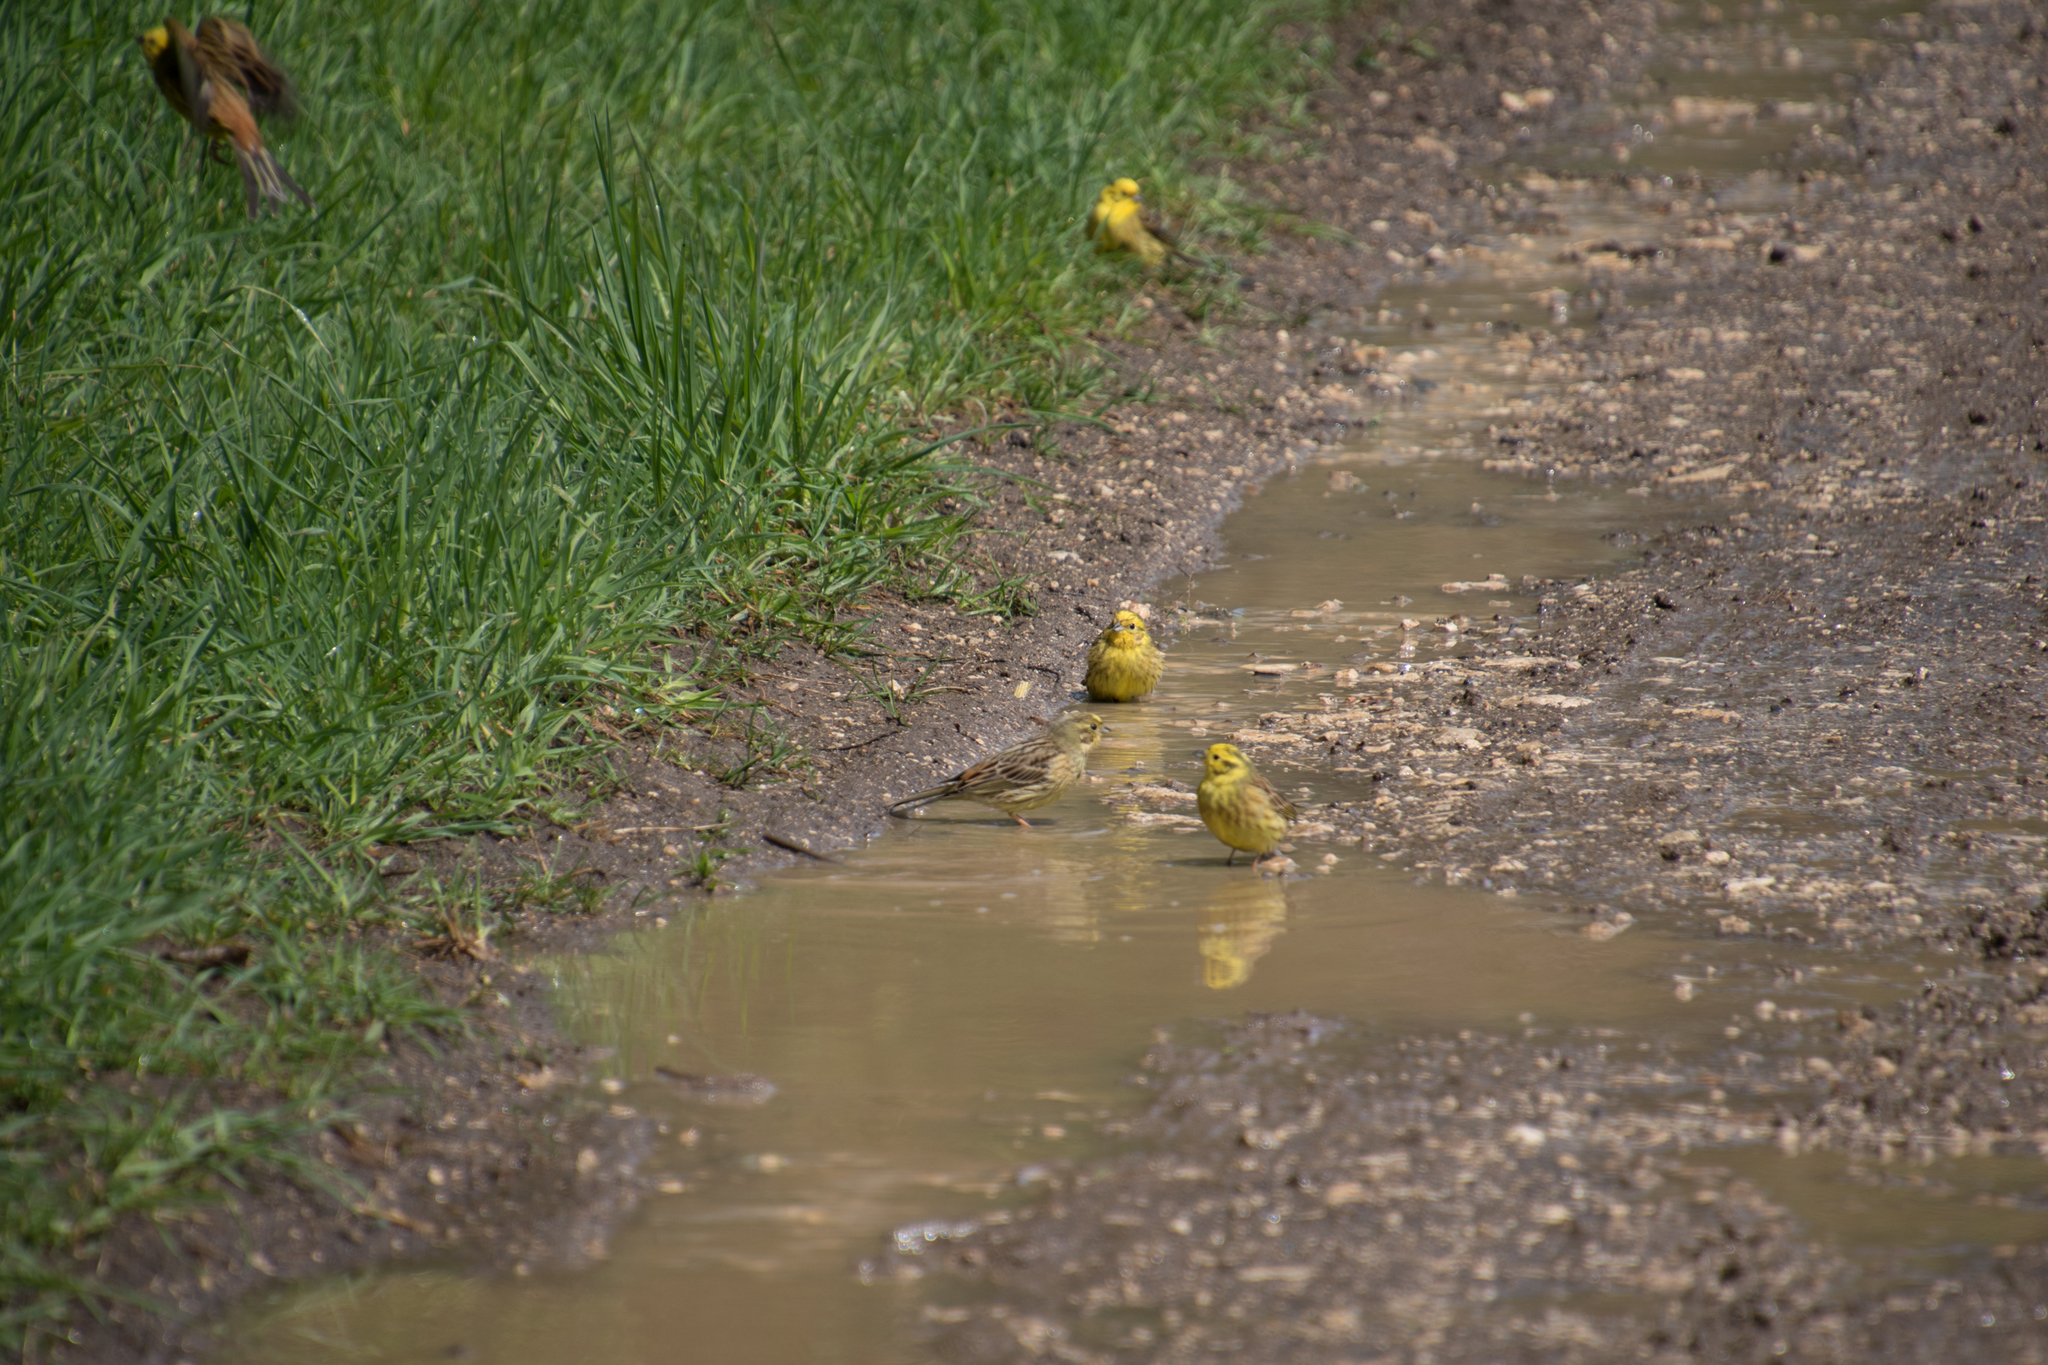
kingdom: Animalia
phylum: Chordata
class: Aves
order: Passeriformes
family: Emberizidae
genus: Emberiza
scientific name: Emberiza citrinella
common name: Yellowhammer
